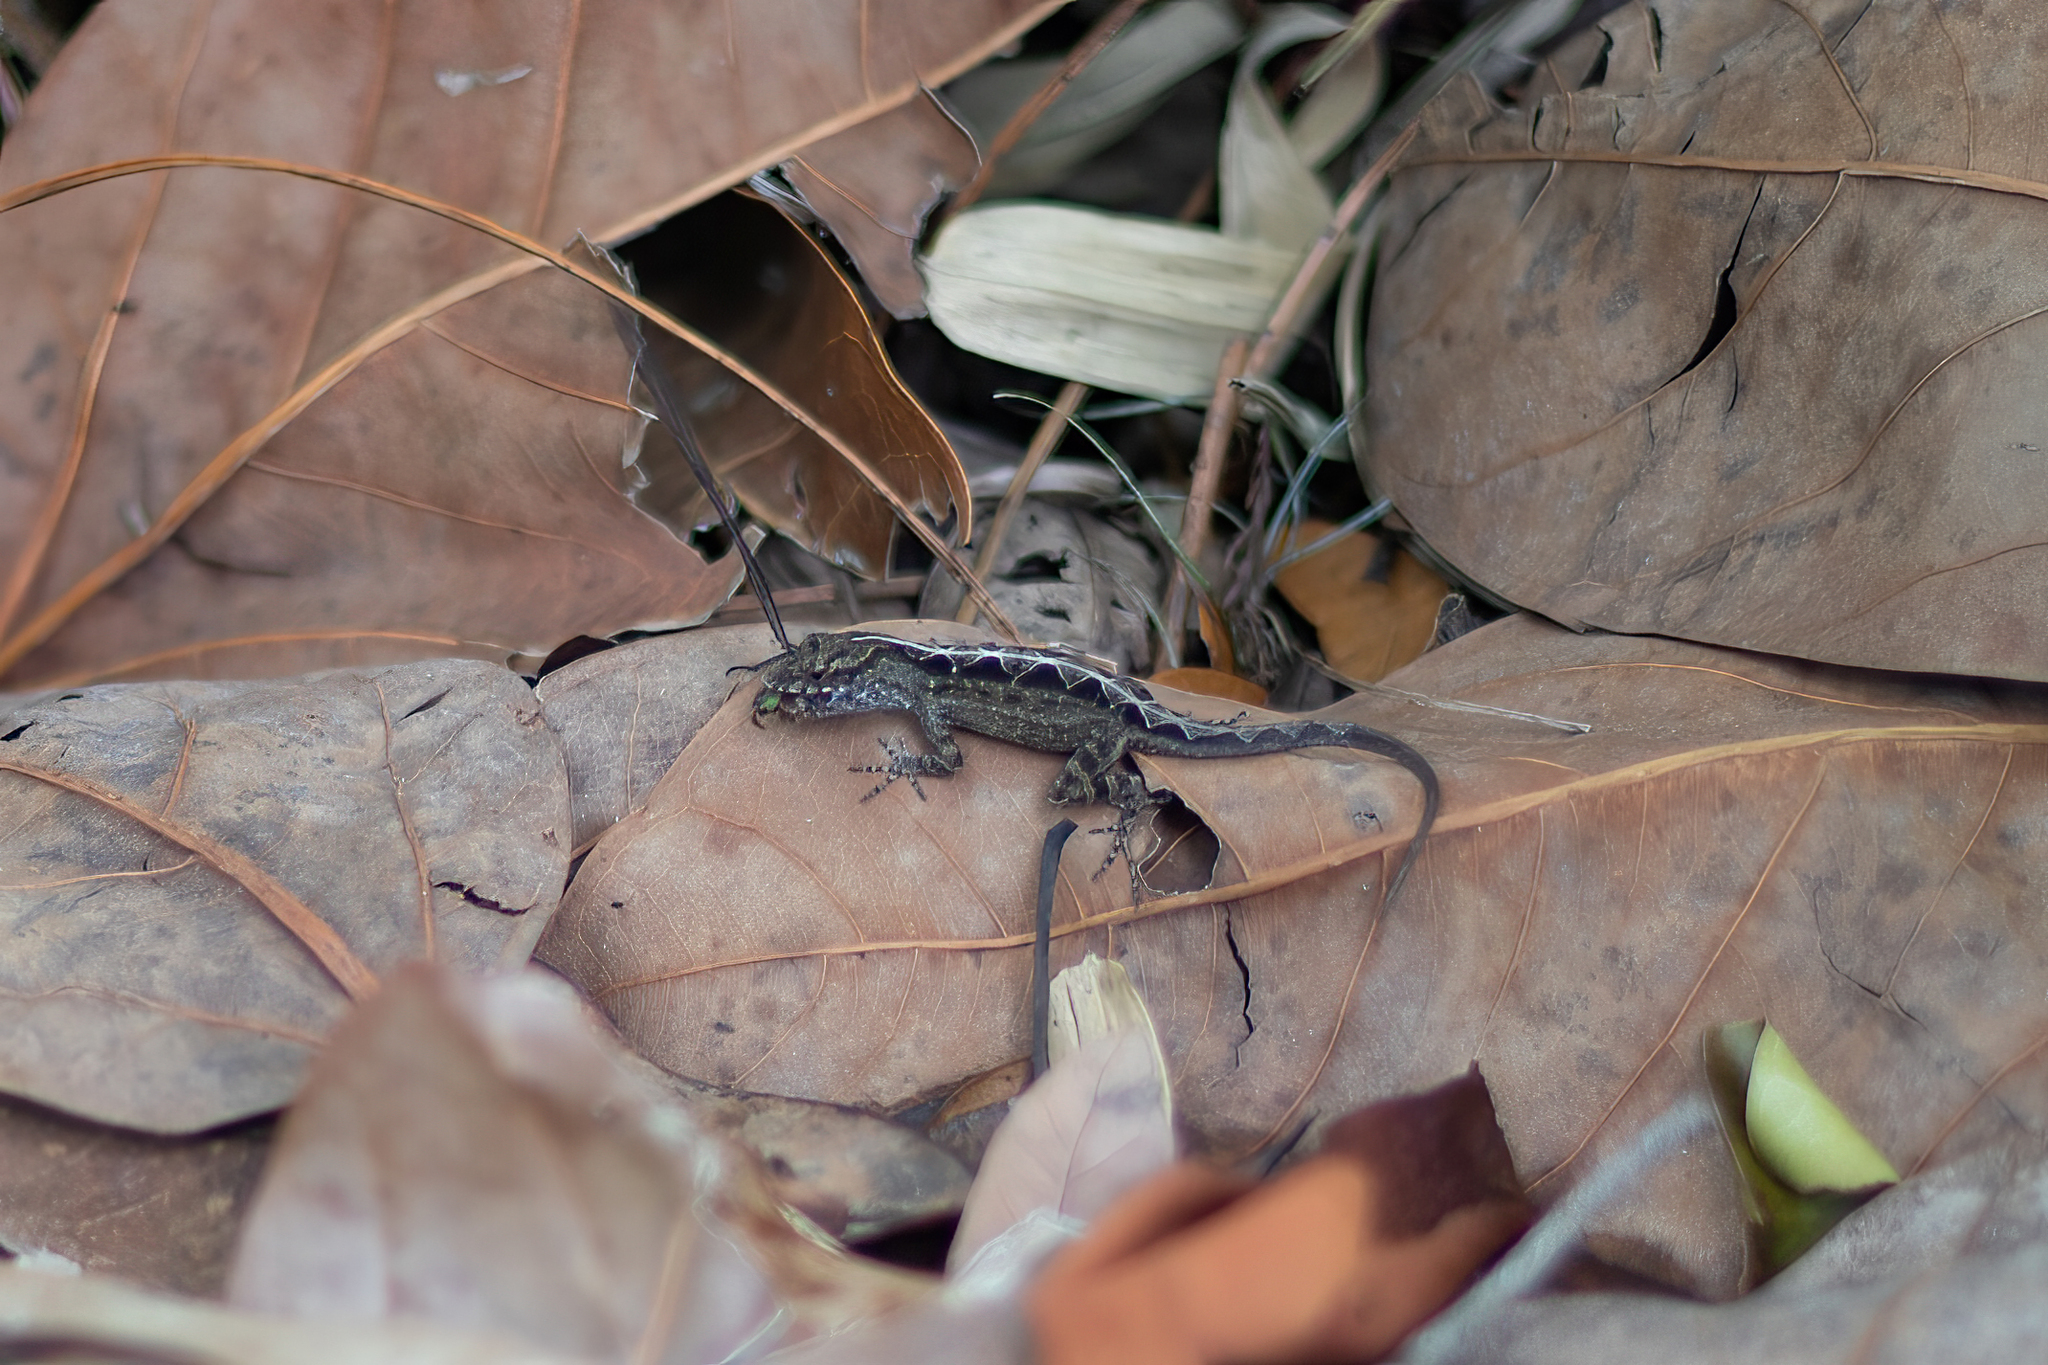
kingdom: Animalia
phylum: Chordata
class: Squamata
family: Dactyloidae
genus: Anolis
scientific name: Anolis sagrei
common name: Brown anole
